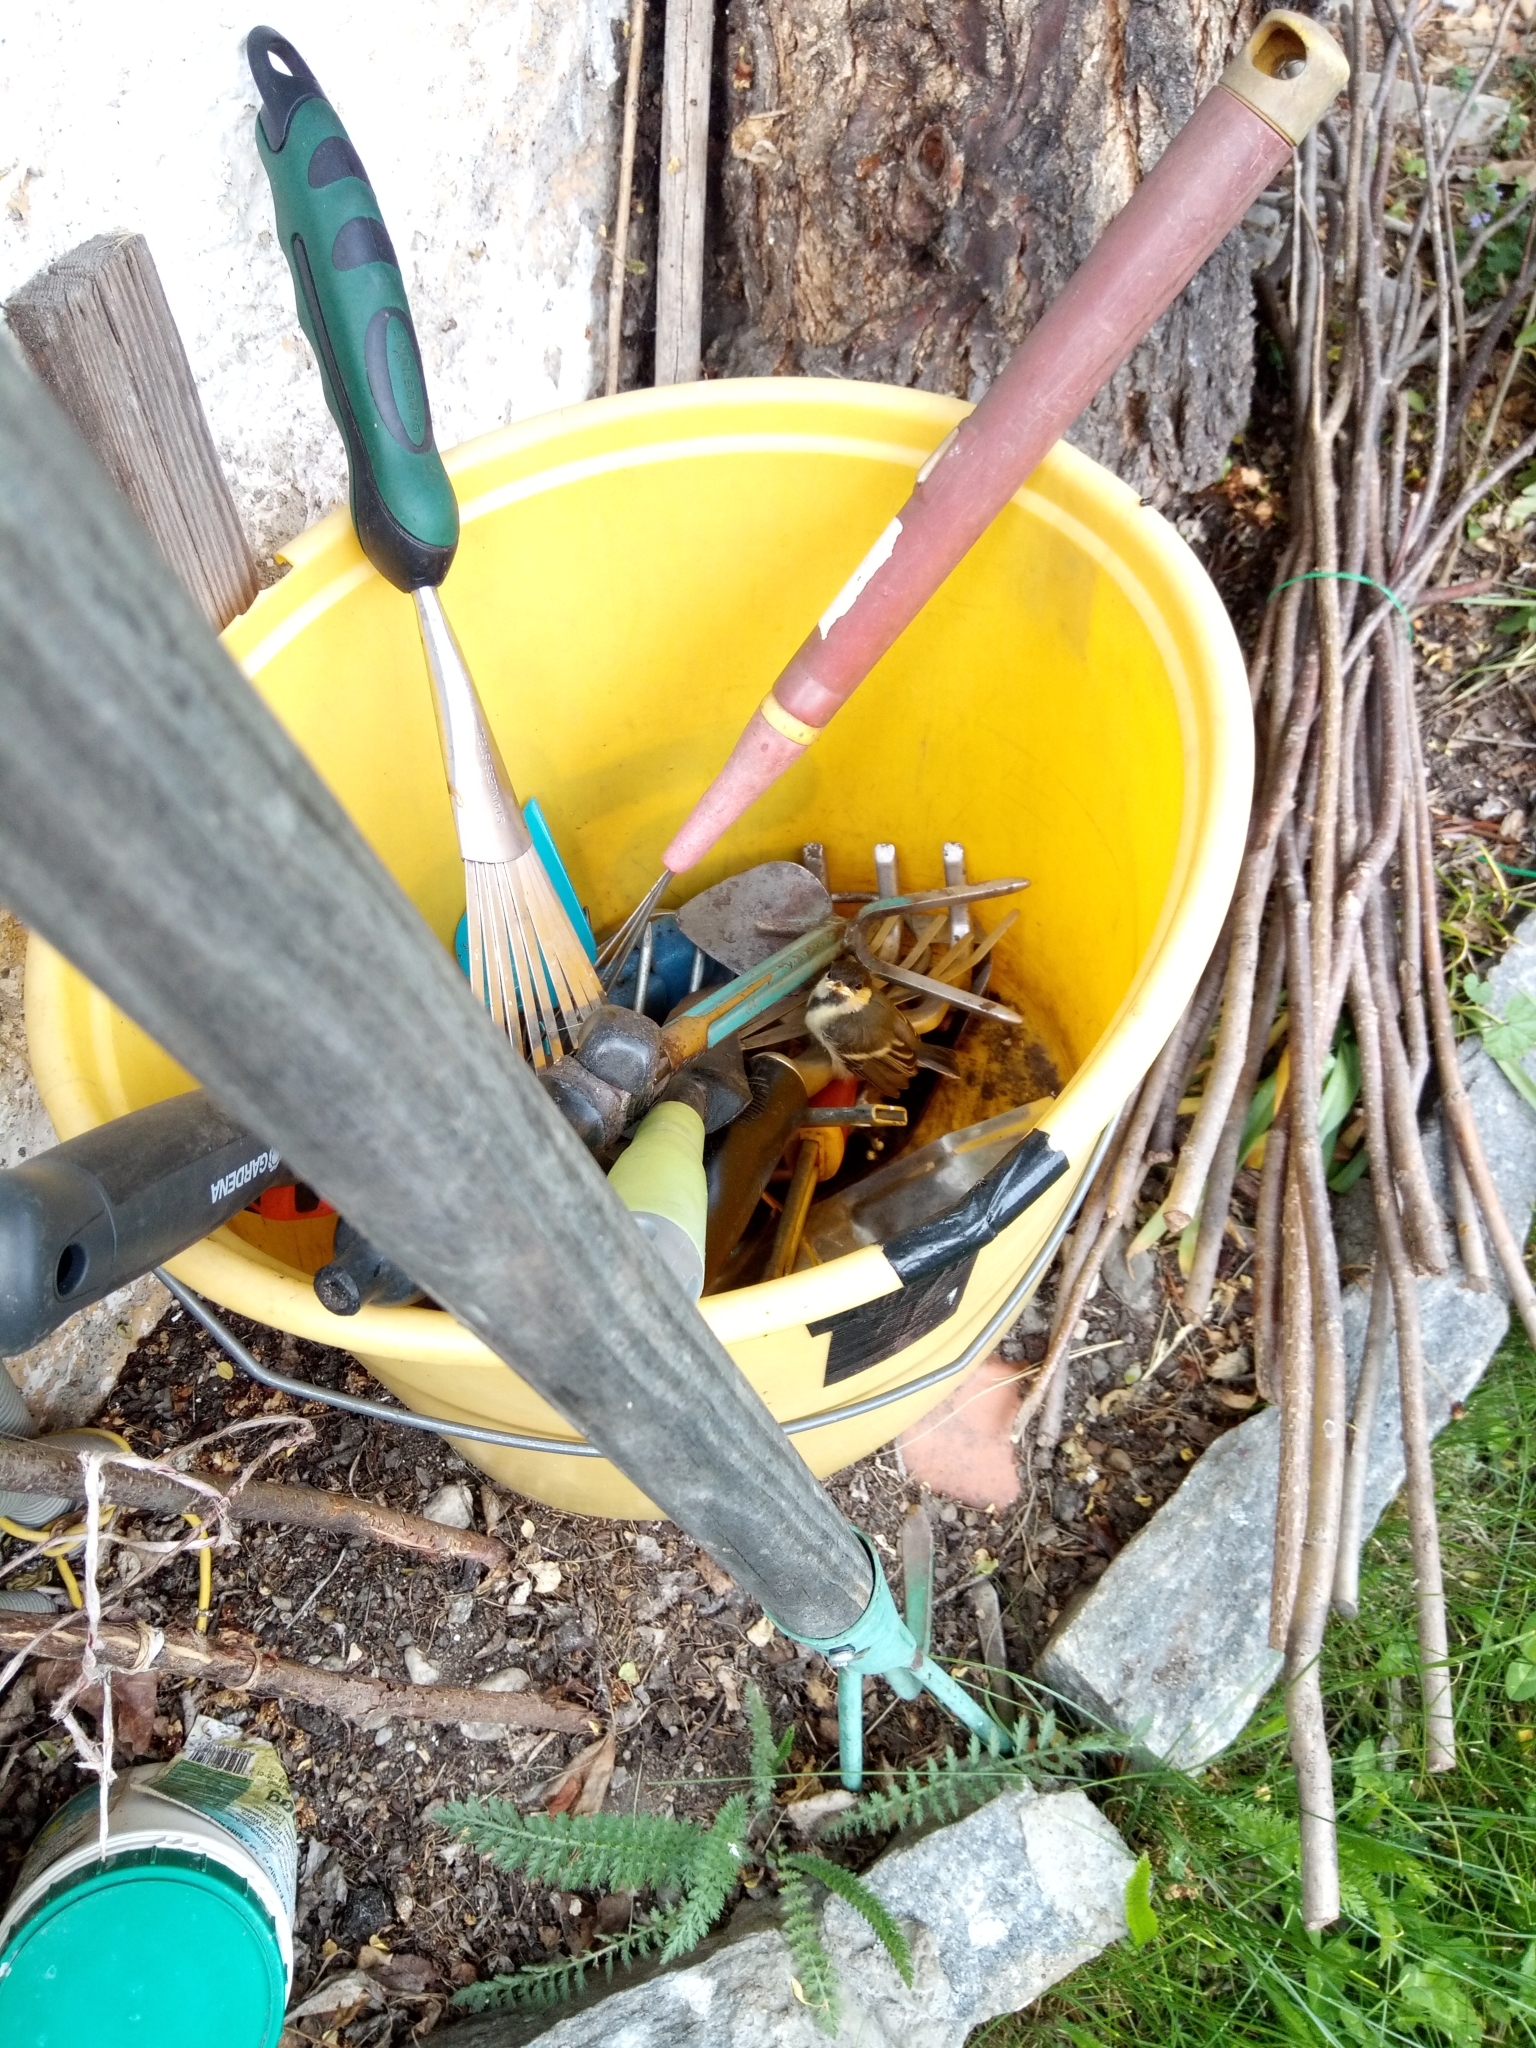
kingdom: Animalia
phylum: Chordata
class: Aves
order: Passeriformes
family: Paridae
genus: Parus
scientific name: Parus major
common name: Great tit
